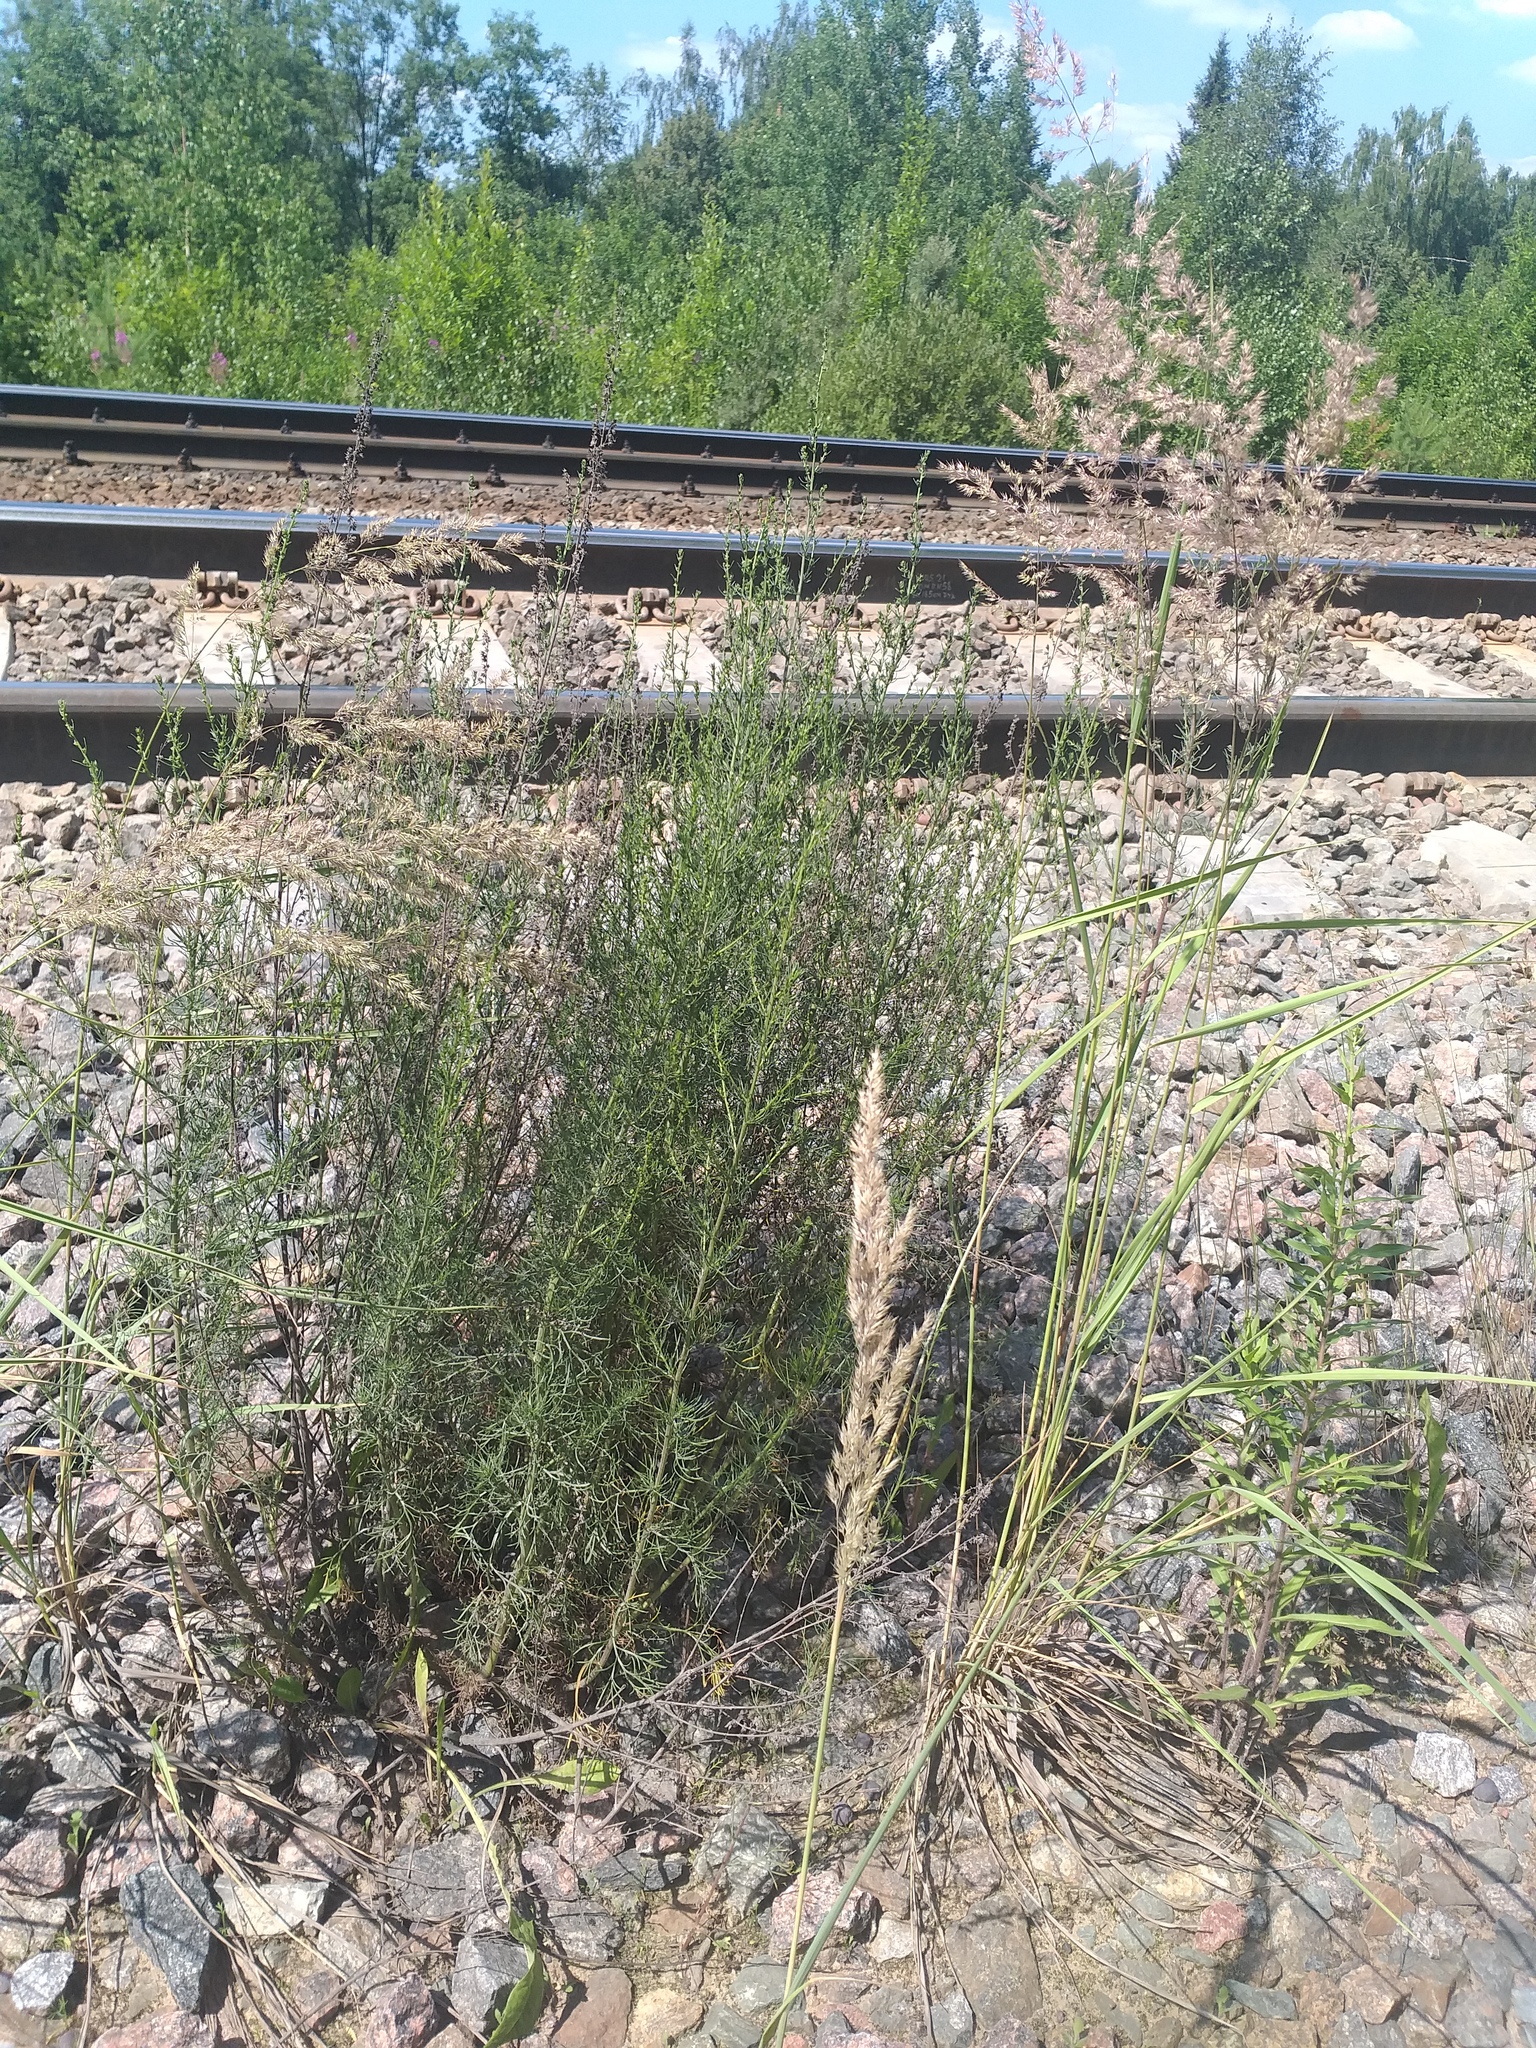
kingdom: Plantae
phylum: Tracheophyta
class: Liliopsida
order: Poales
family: Poaceae
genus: Calamagrostis
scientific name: Calamagrostis epigejos
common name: Wood small-reed
